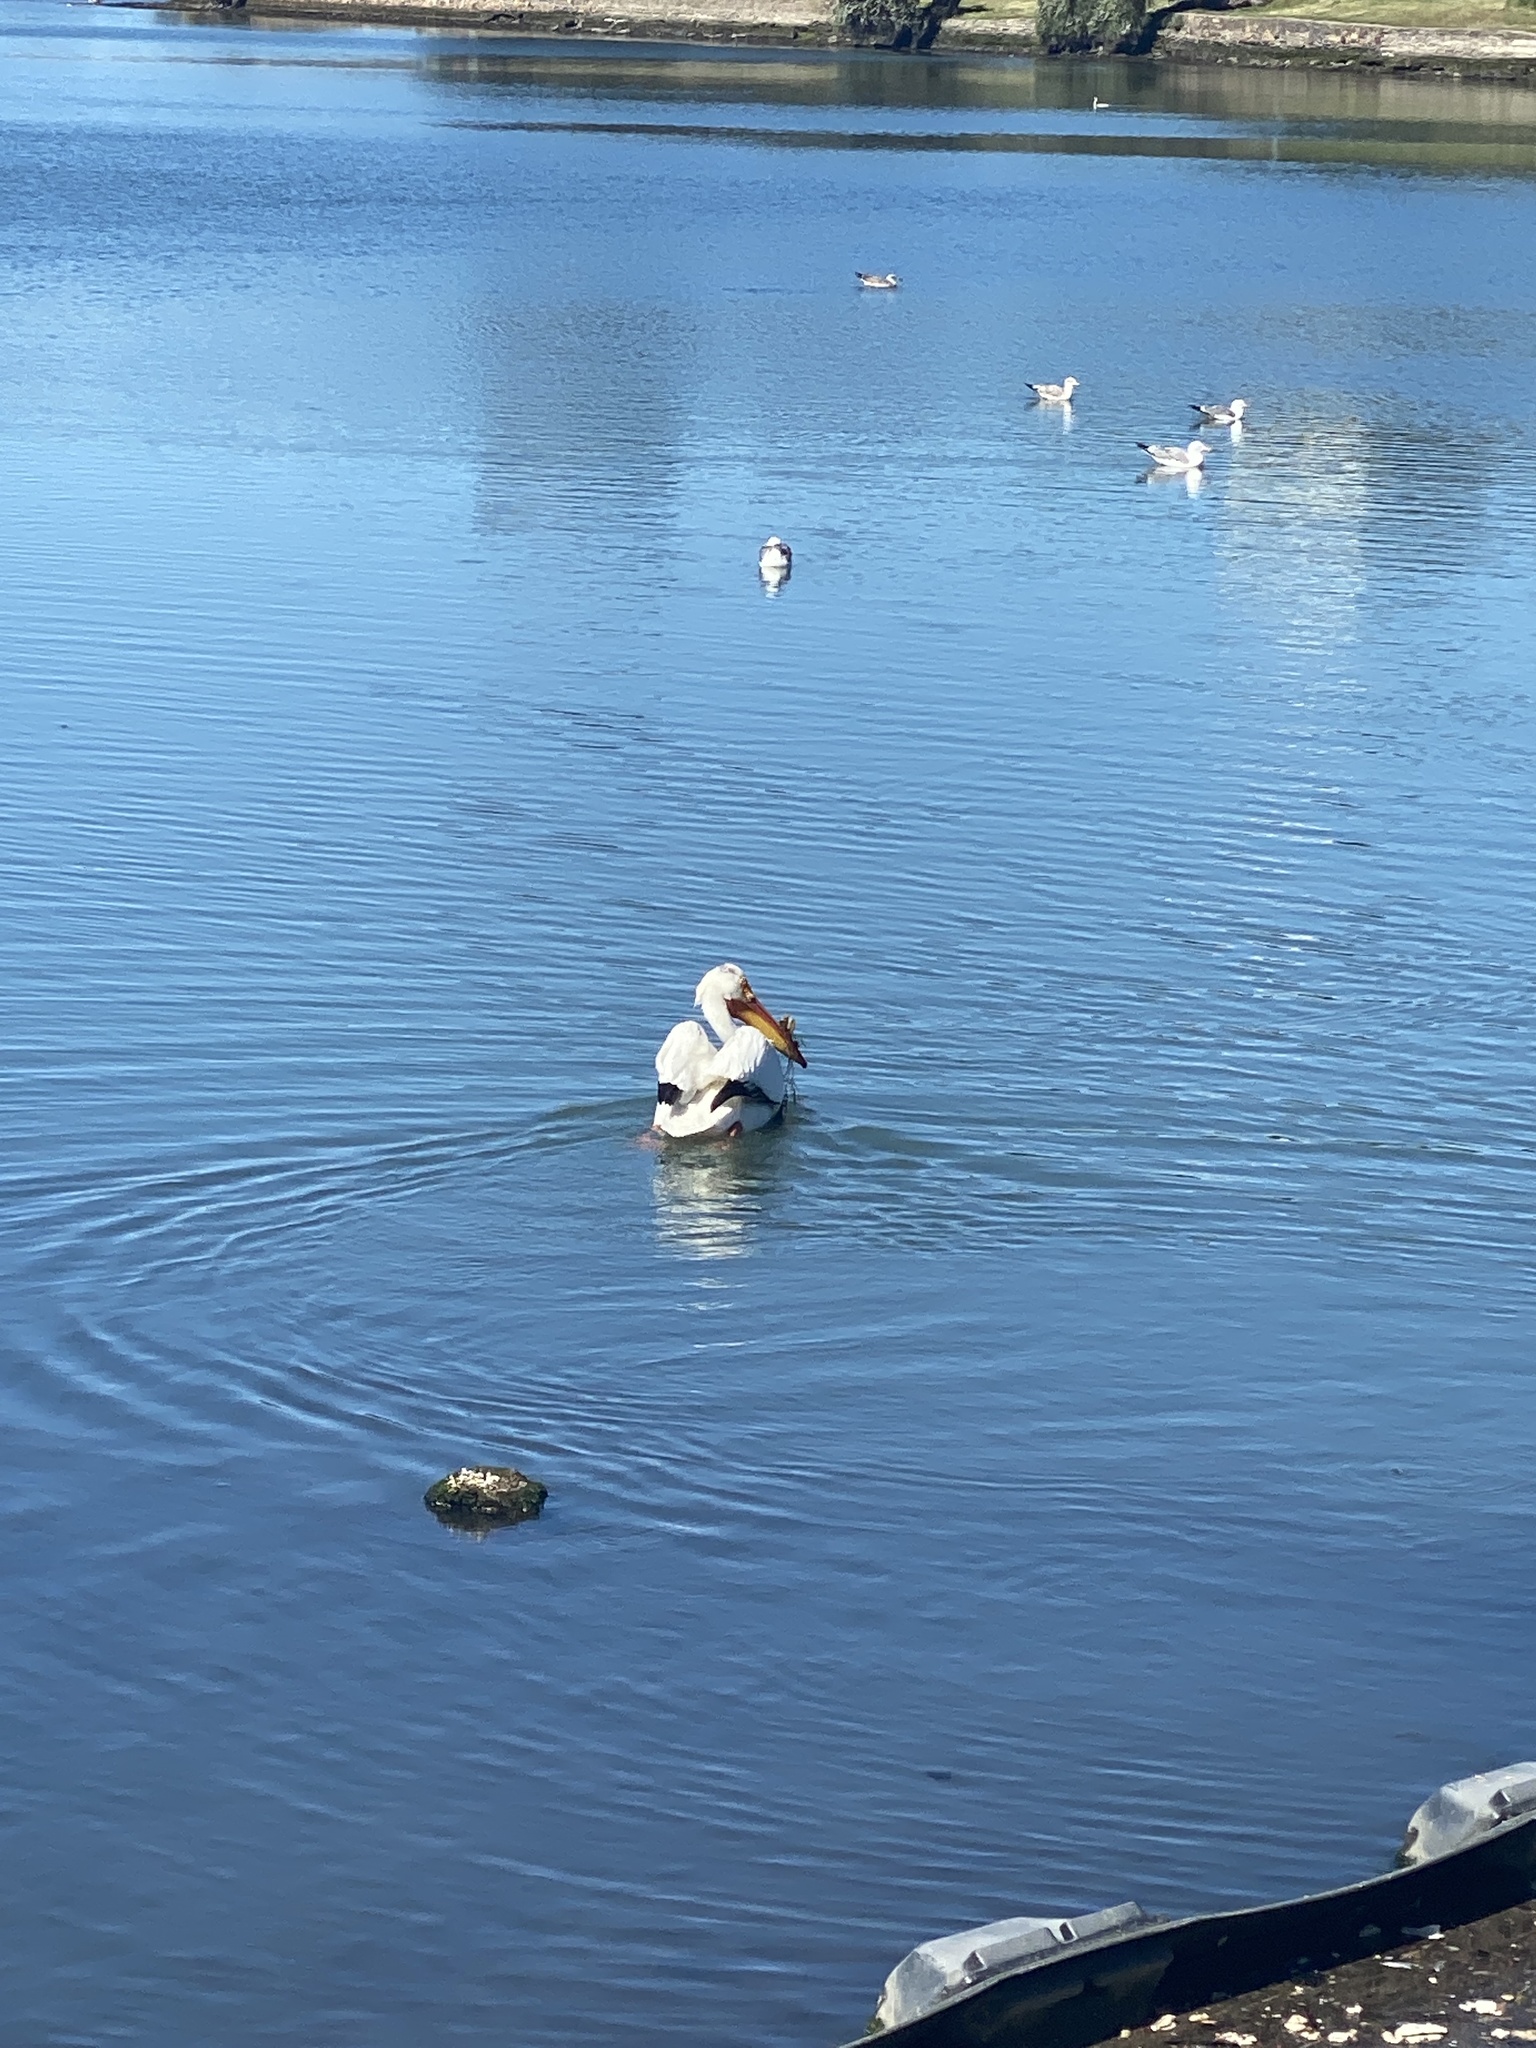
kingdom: Animalia
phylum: Chordata
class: Aves
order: Pelecaniformes
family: Pelecanidae
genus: Pelecanus
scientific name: Pelecanus erythrorhynchos
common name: American white pelican
